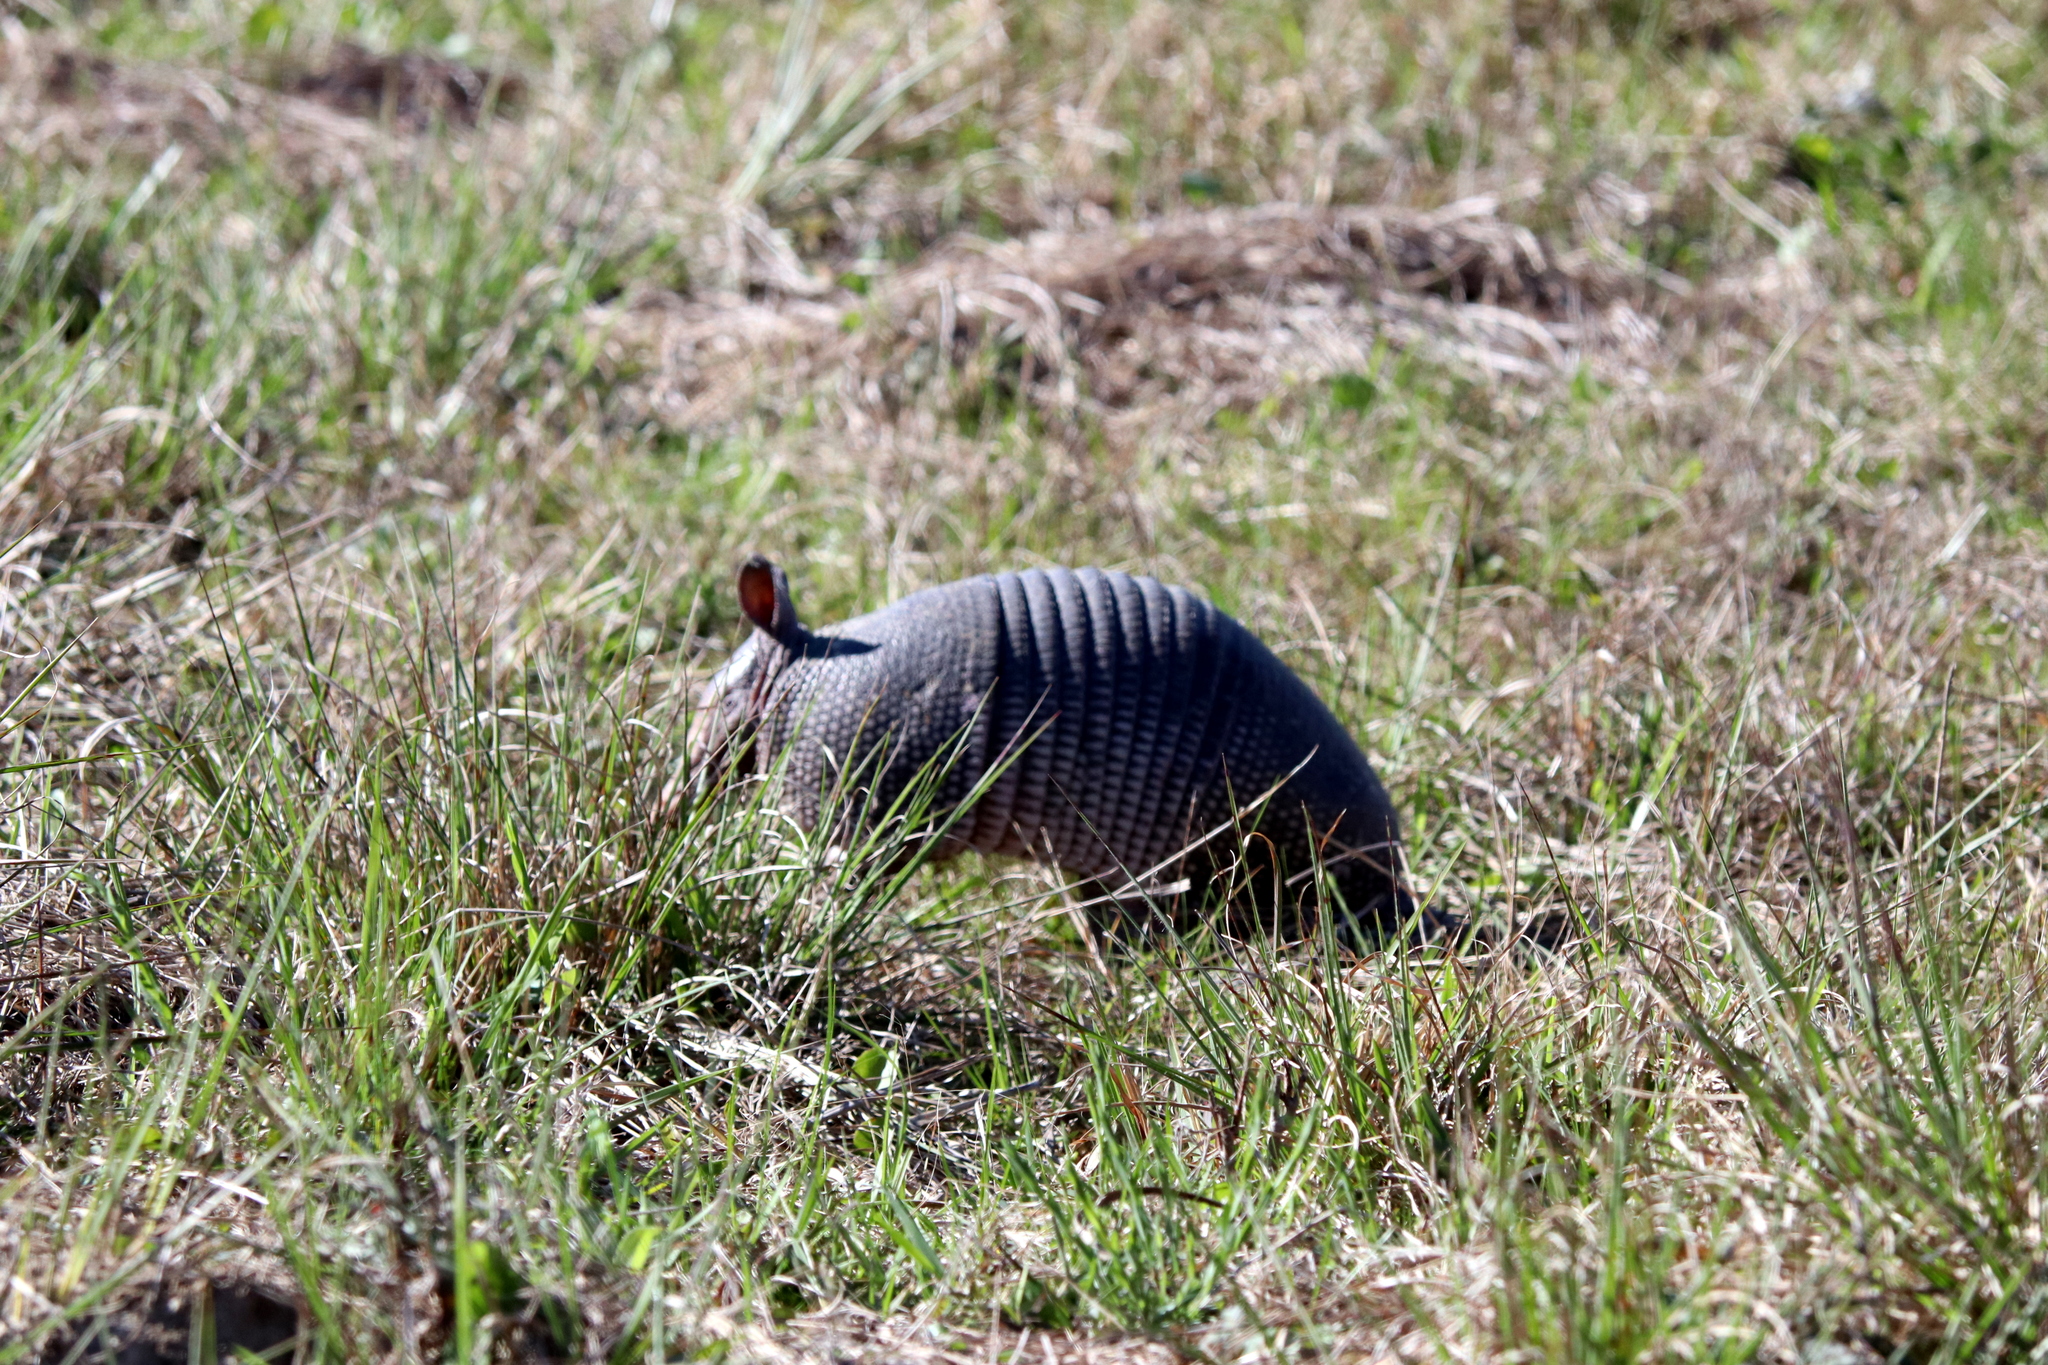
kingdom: Animalia
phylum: Chordata
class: Mammalia
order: Cingulata
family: Dasypodidae
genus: Dasypus
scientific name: Dasypus novemcinctus
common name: Nine-banded armadillo
